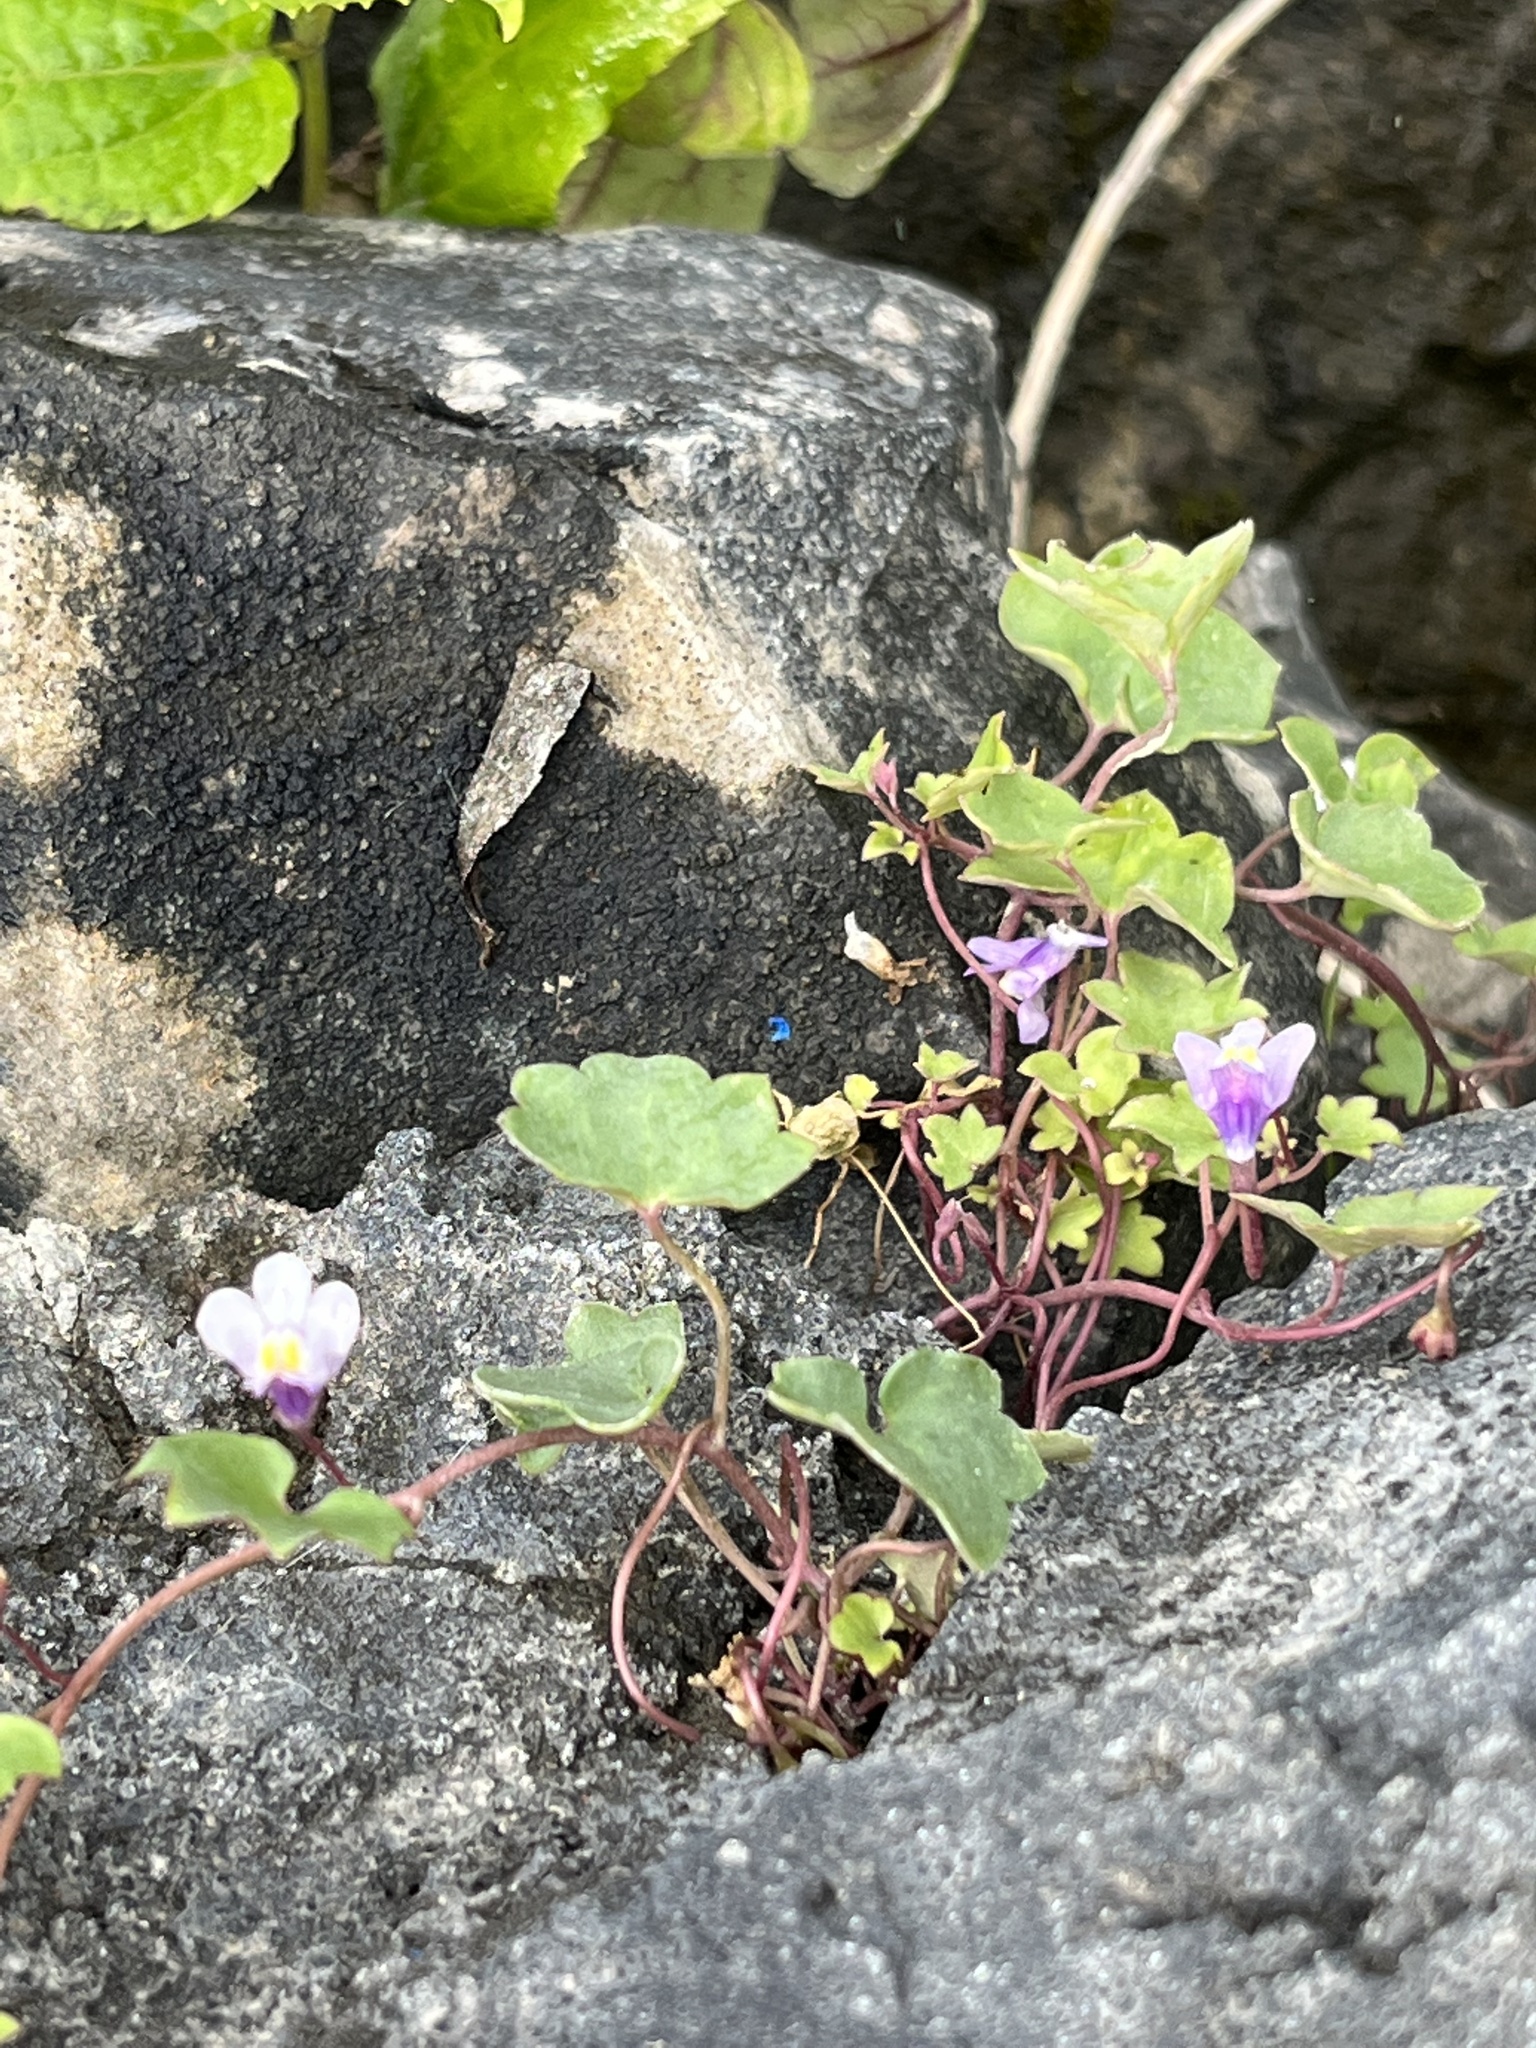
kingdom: Plantae
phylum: Tracheophyta
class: Magnoliopsida
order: Lamiales
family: Plantaginaceae
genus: Cymbalaria
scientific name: Cymbalaria muralis
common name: Ivy-leaved toadflax
